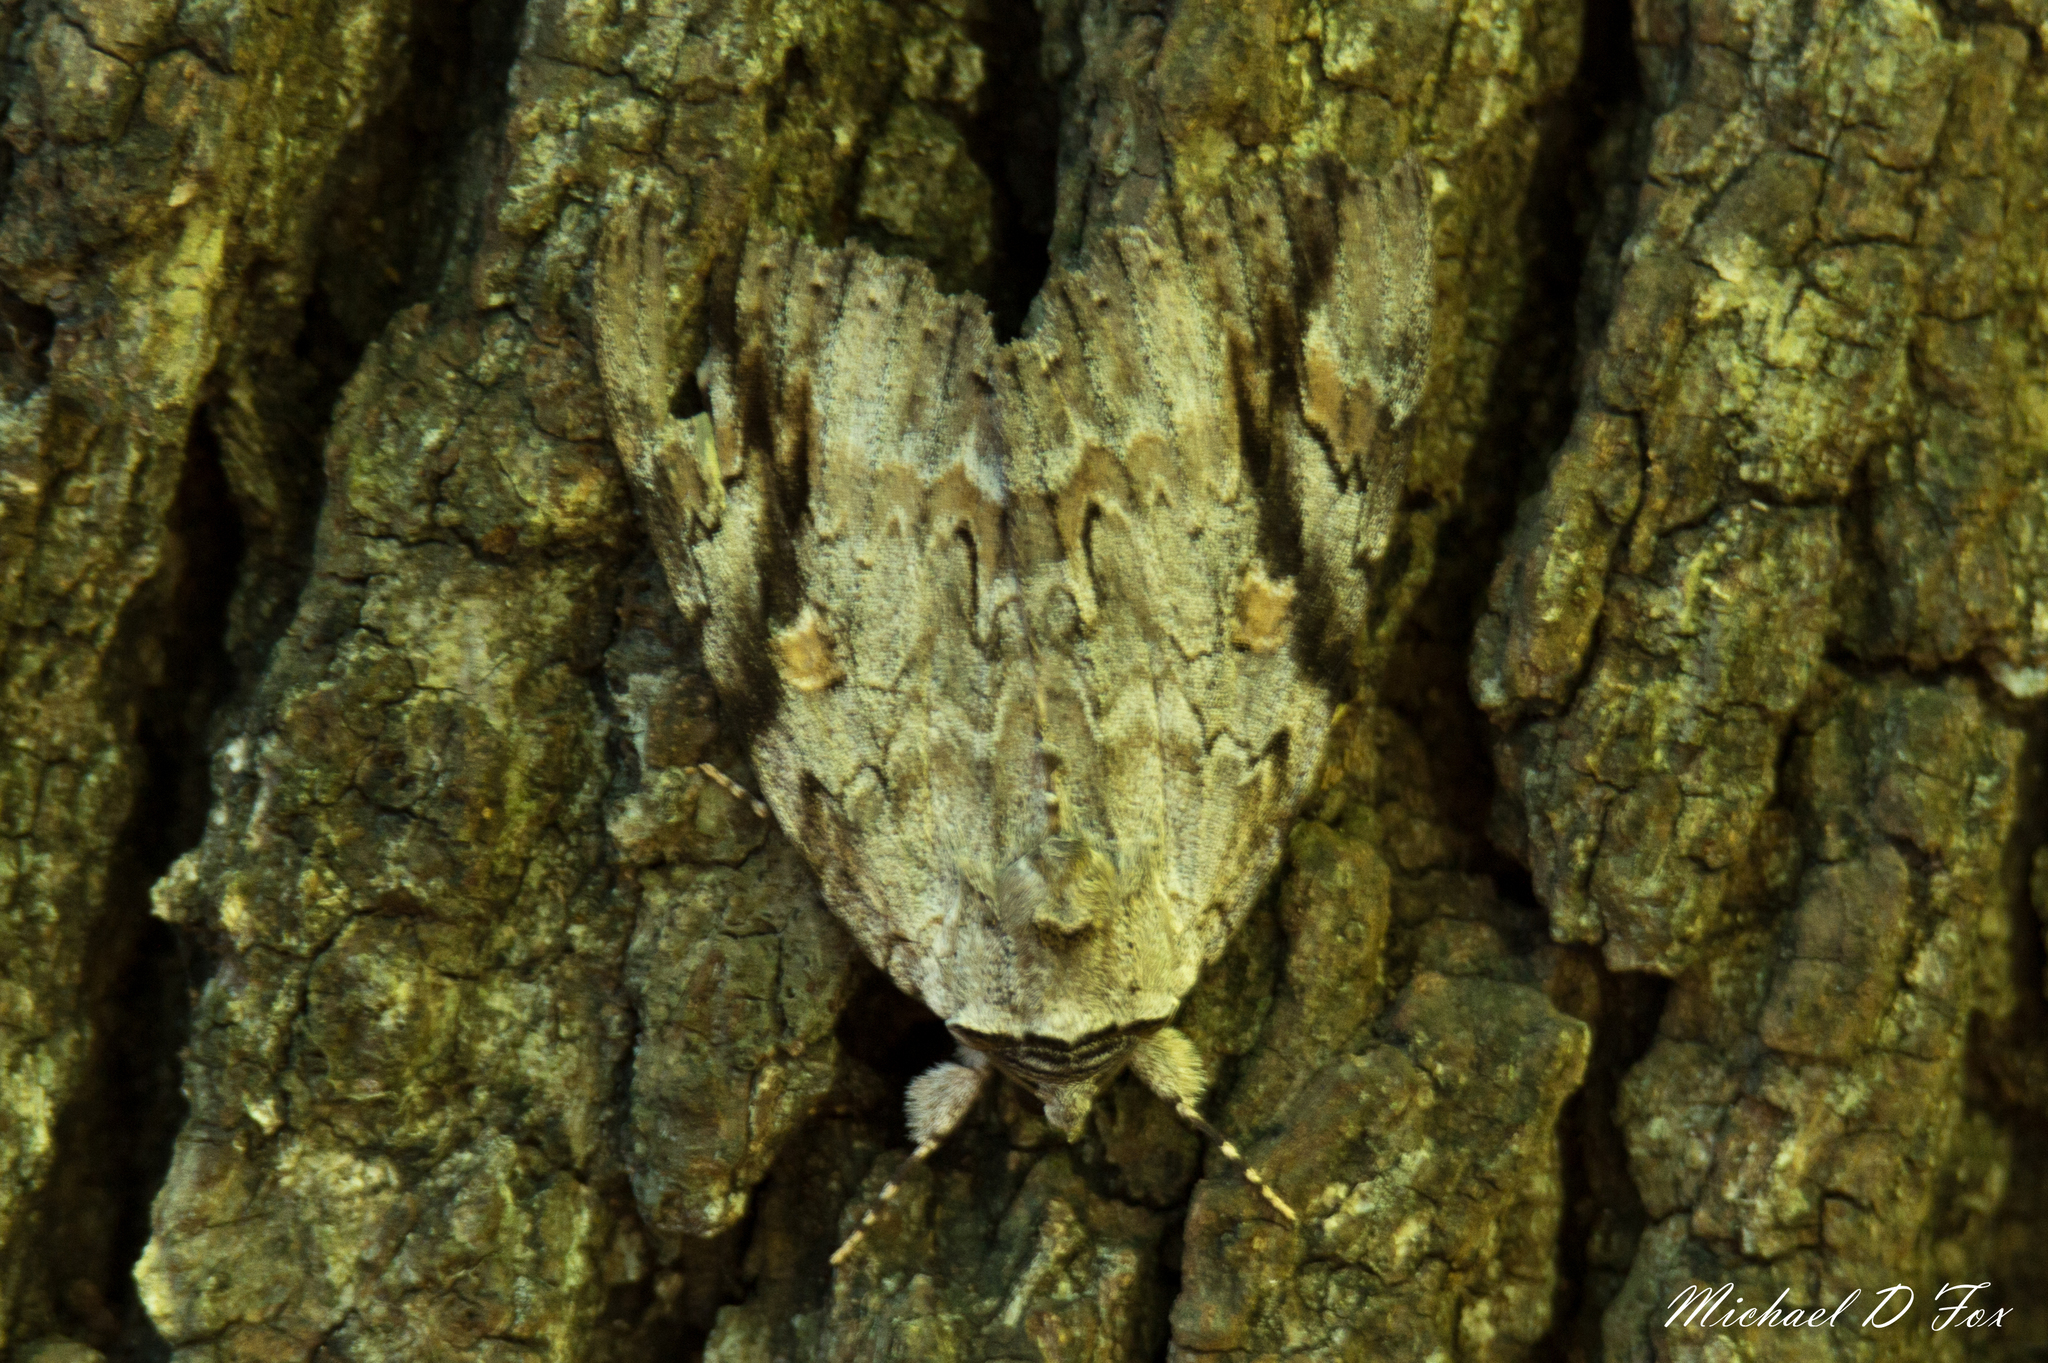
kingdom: Animalia
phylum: Arthropoda
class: Insecta
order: Lepidoptera
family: Erebidae
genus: Catocala
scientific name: Catocala maestosa
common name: Sad underwing
